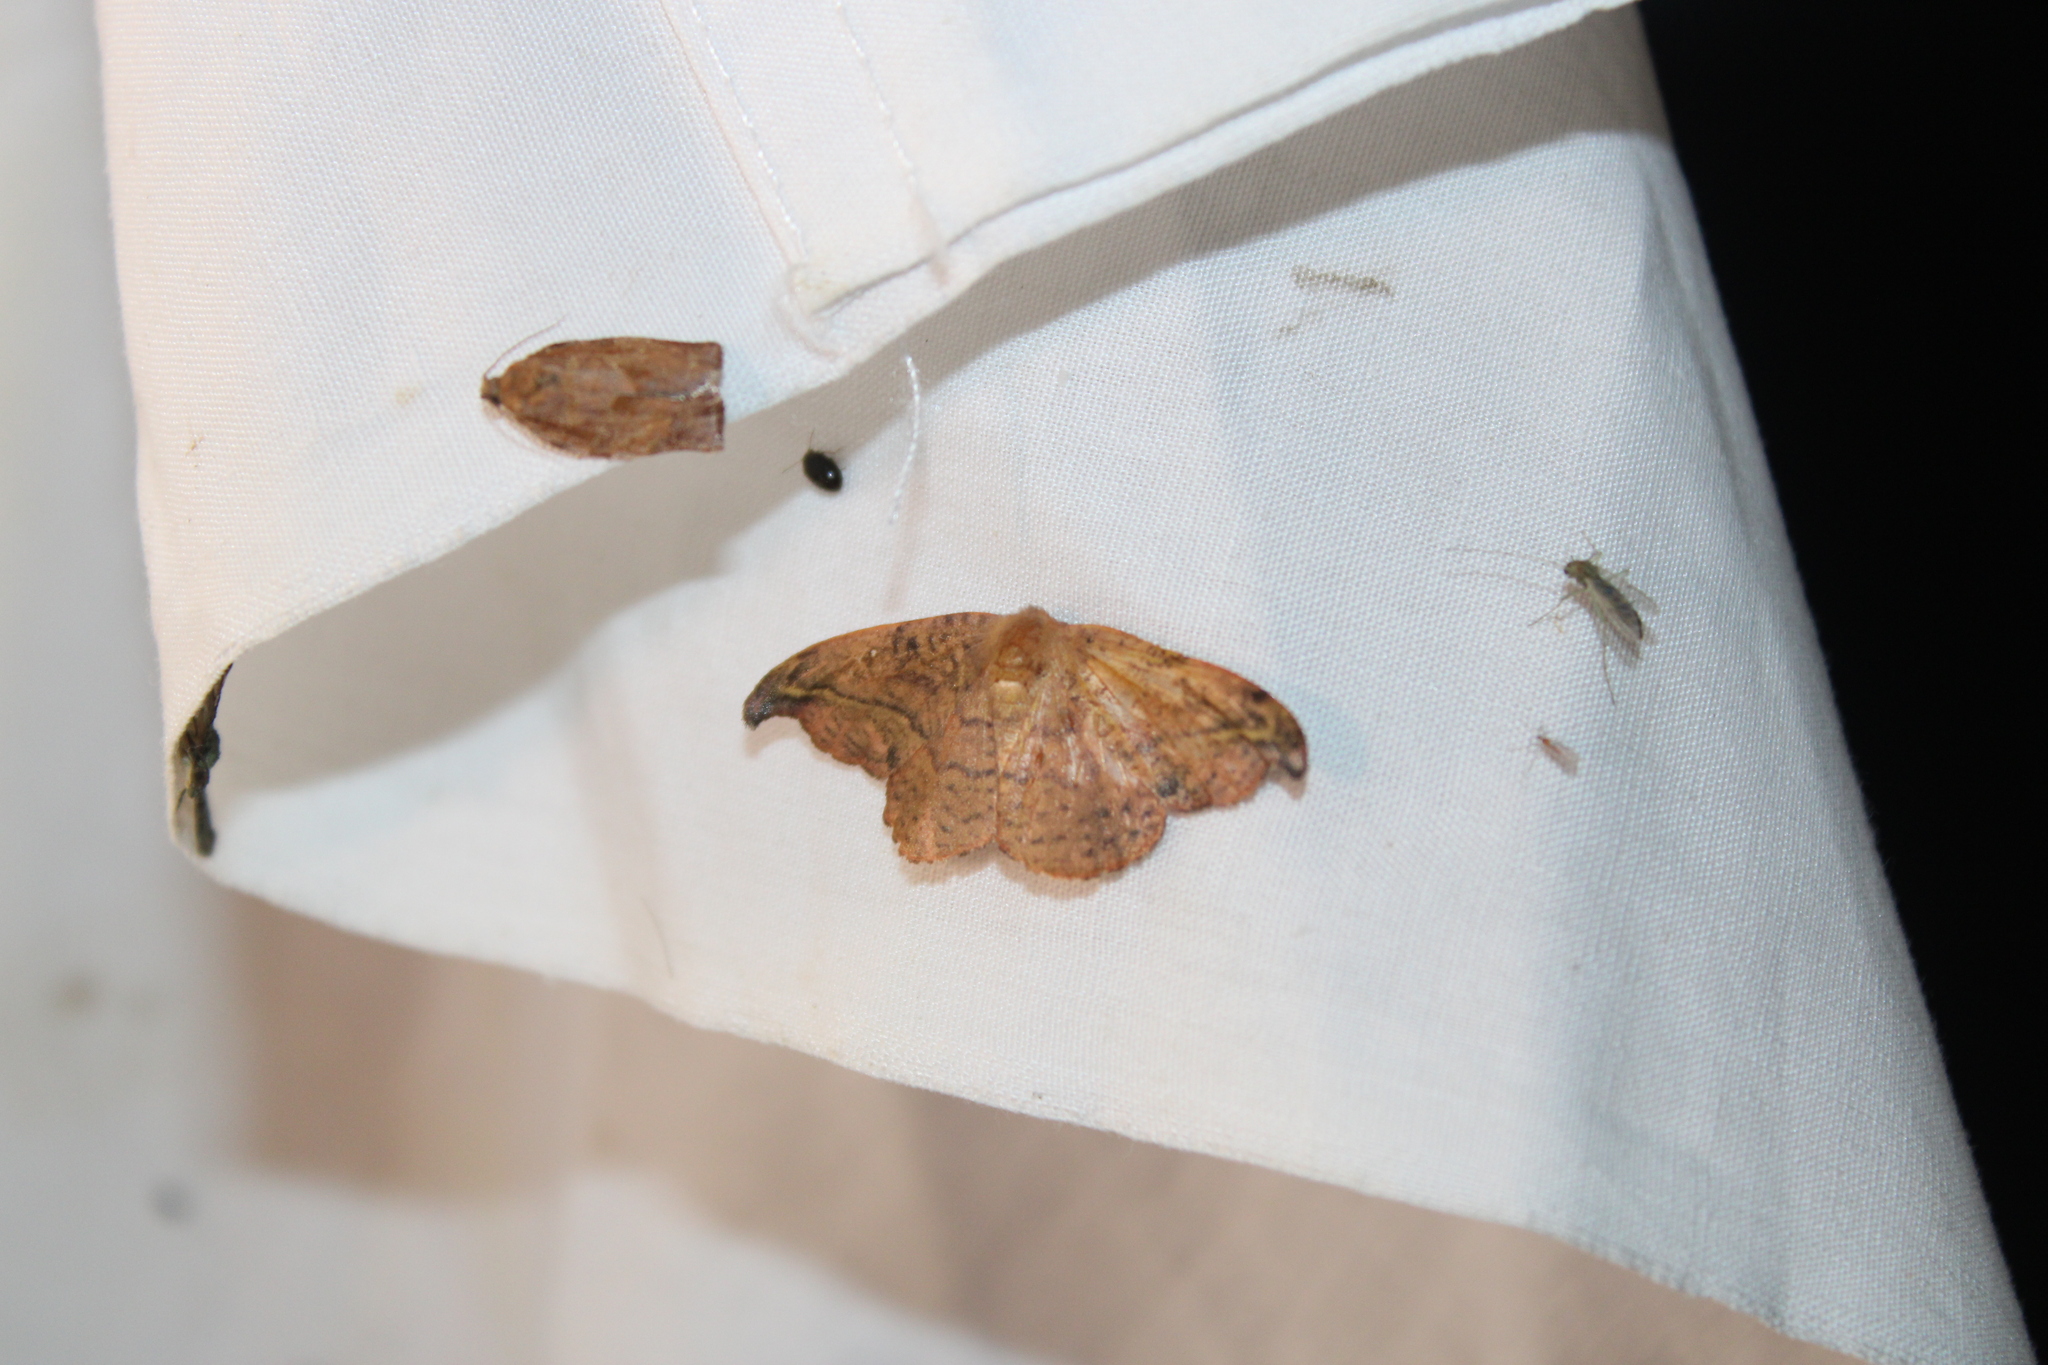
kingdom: Animalia
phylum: Arthropoda
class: Insecta
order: Lepidoptera
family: Drepanidae
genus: Oreta
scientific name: Oreta rosea
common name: Rose hooktip
